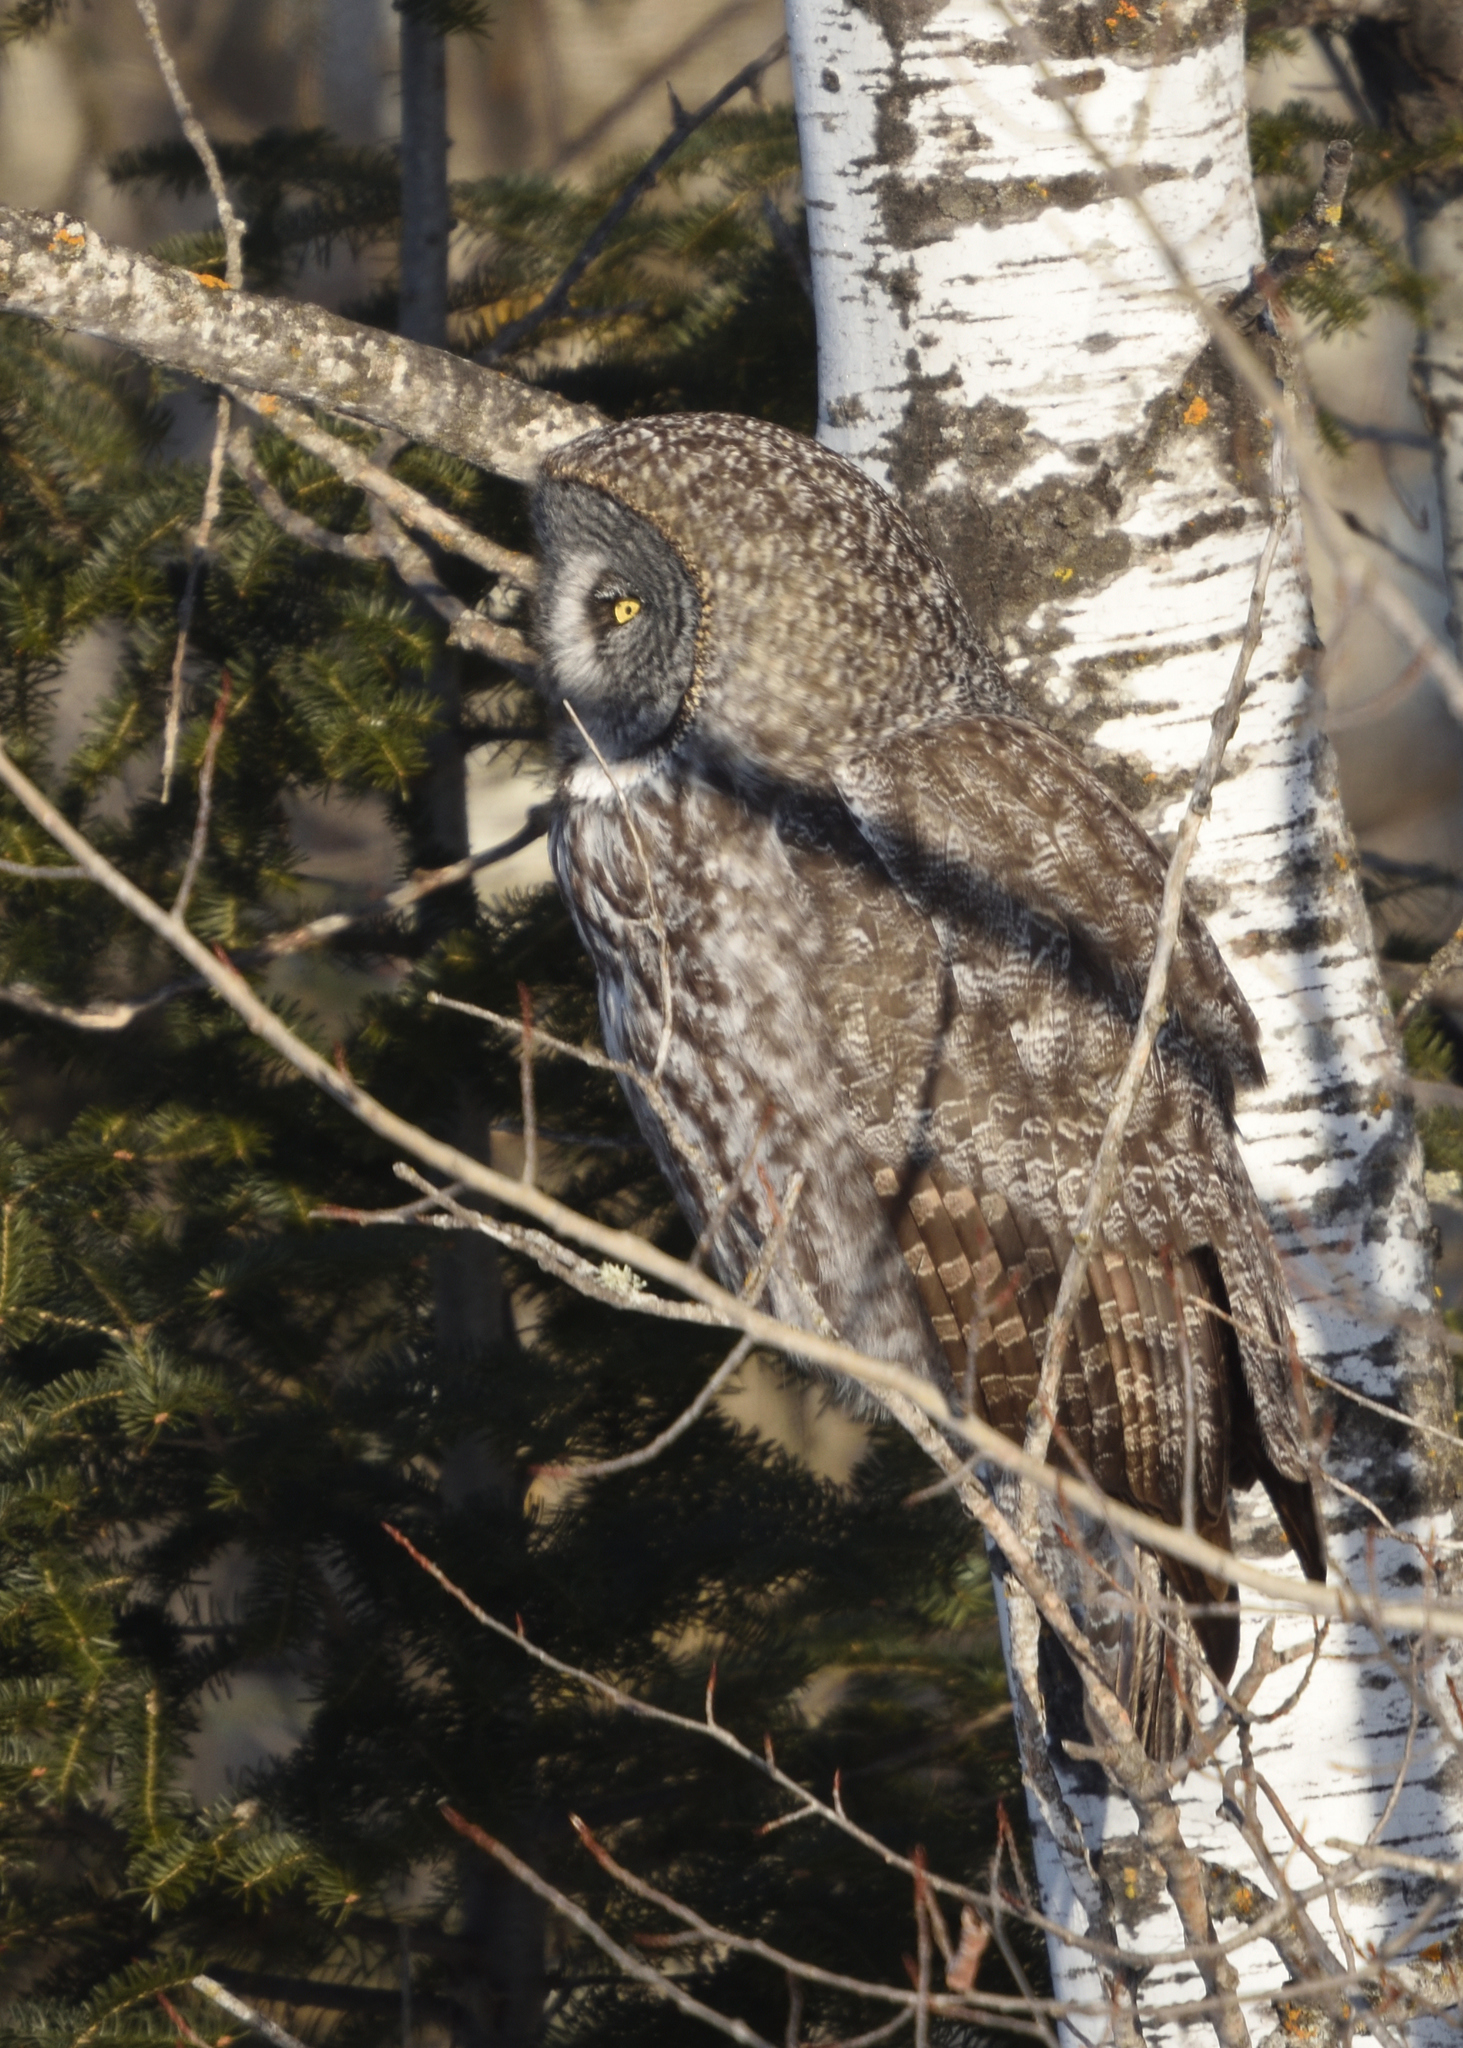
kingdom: Animalia
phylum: Chordata
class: Aves
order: Strigiformes
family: Strigidae
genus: Strix
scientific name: Strix nebulosa
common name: Great grey owl
